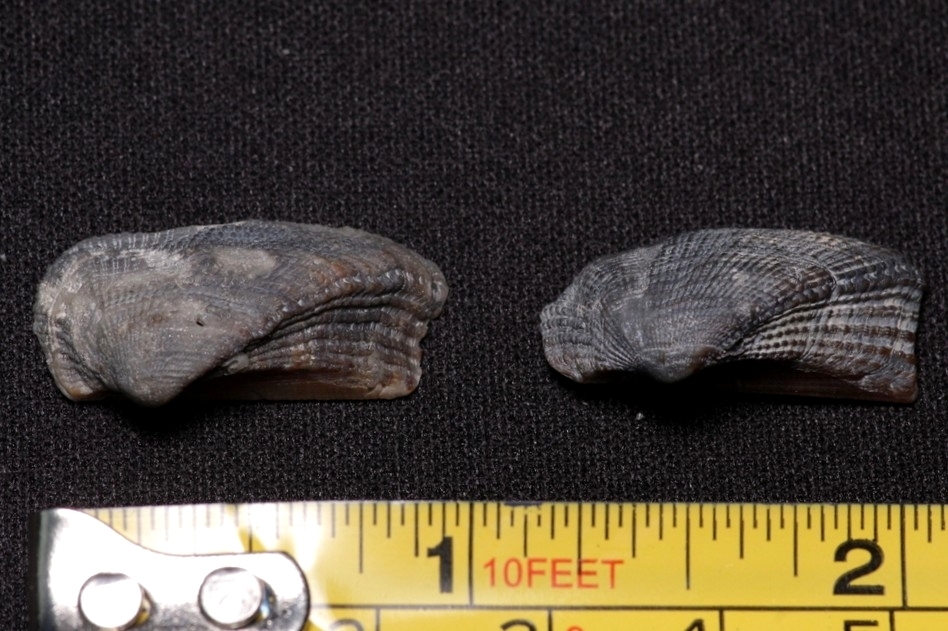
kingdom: Animalia
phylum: Mollusca
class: Bivalvia
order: Arcida
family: Arcidae
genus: Lamarcka
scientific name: Lamarcka imbricata
